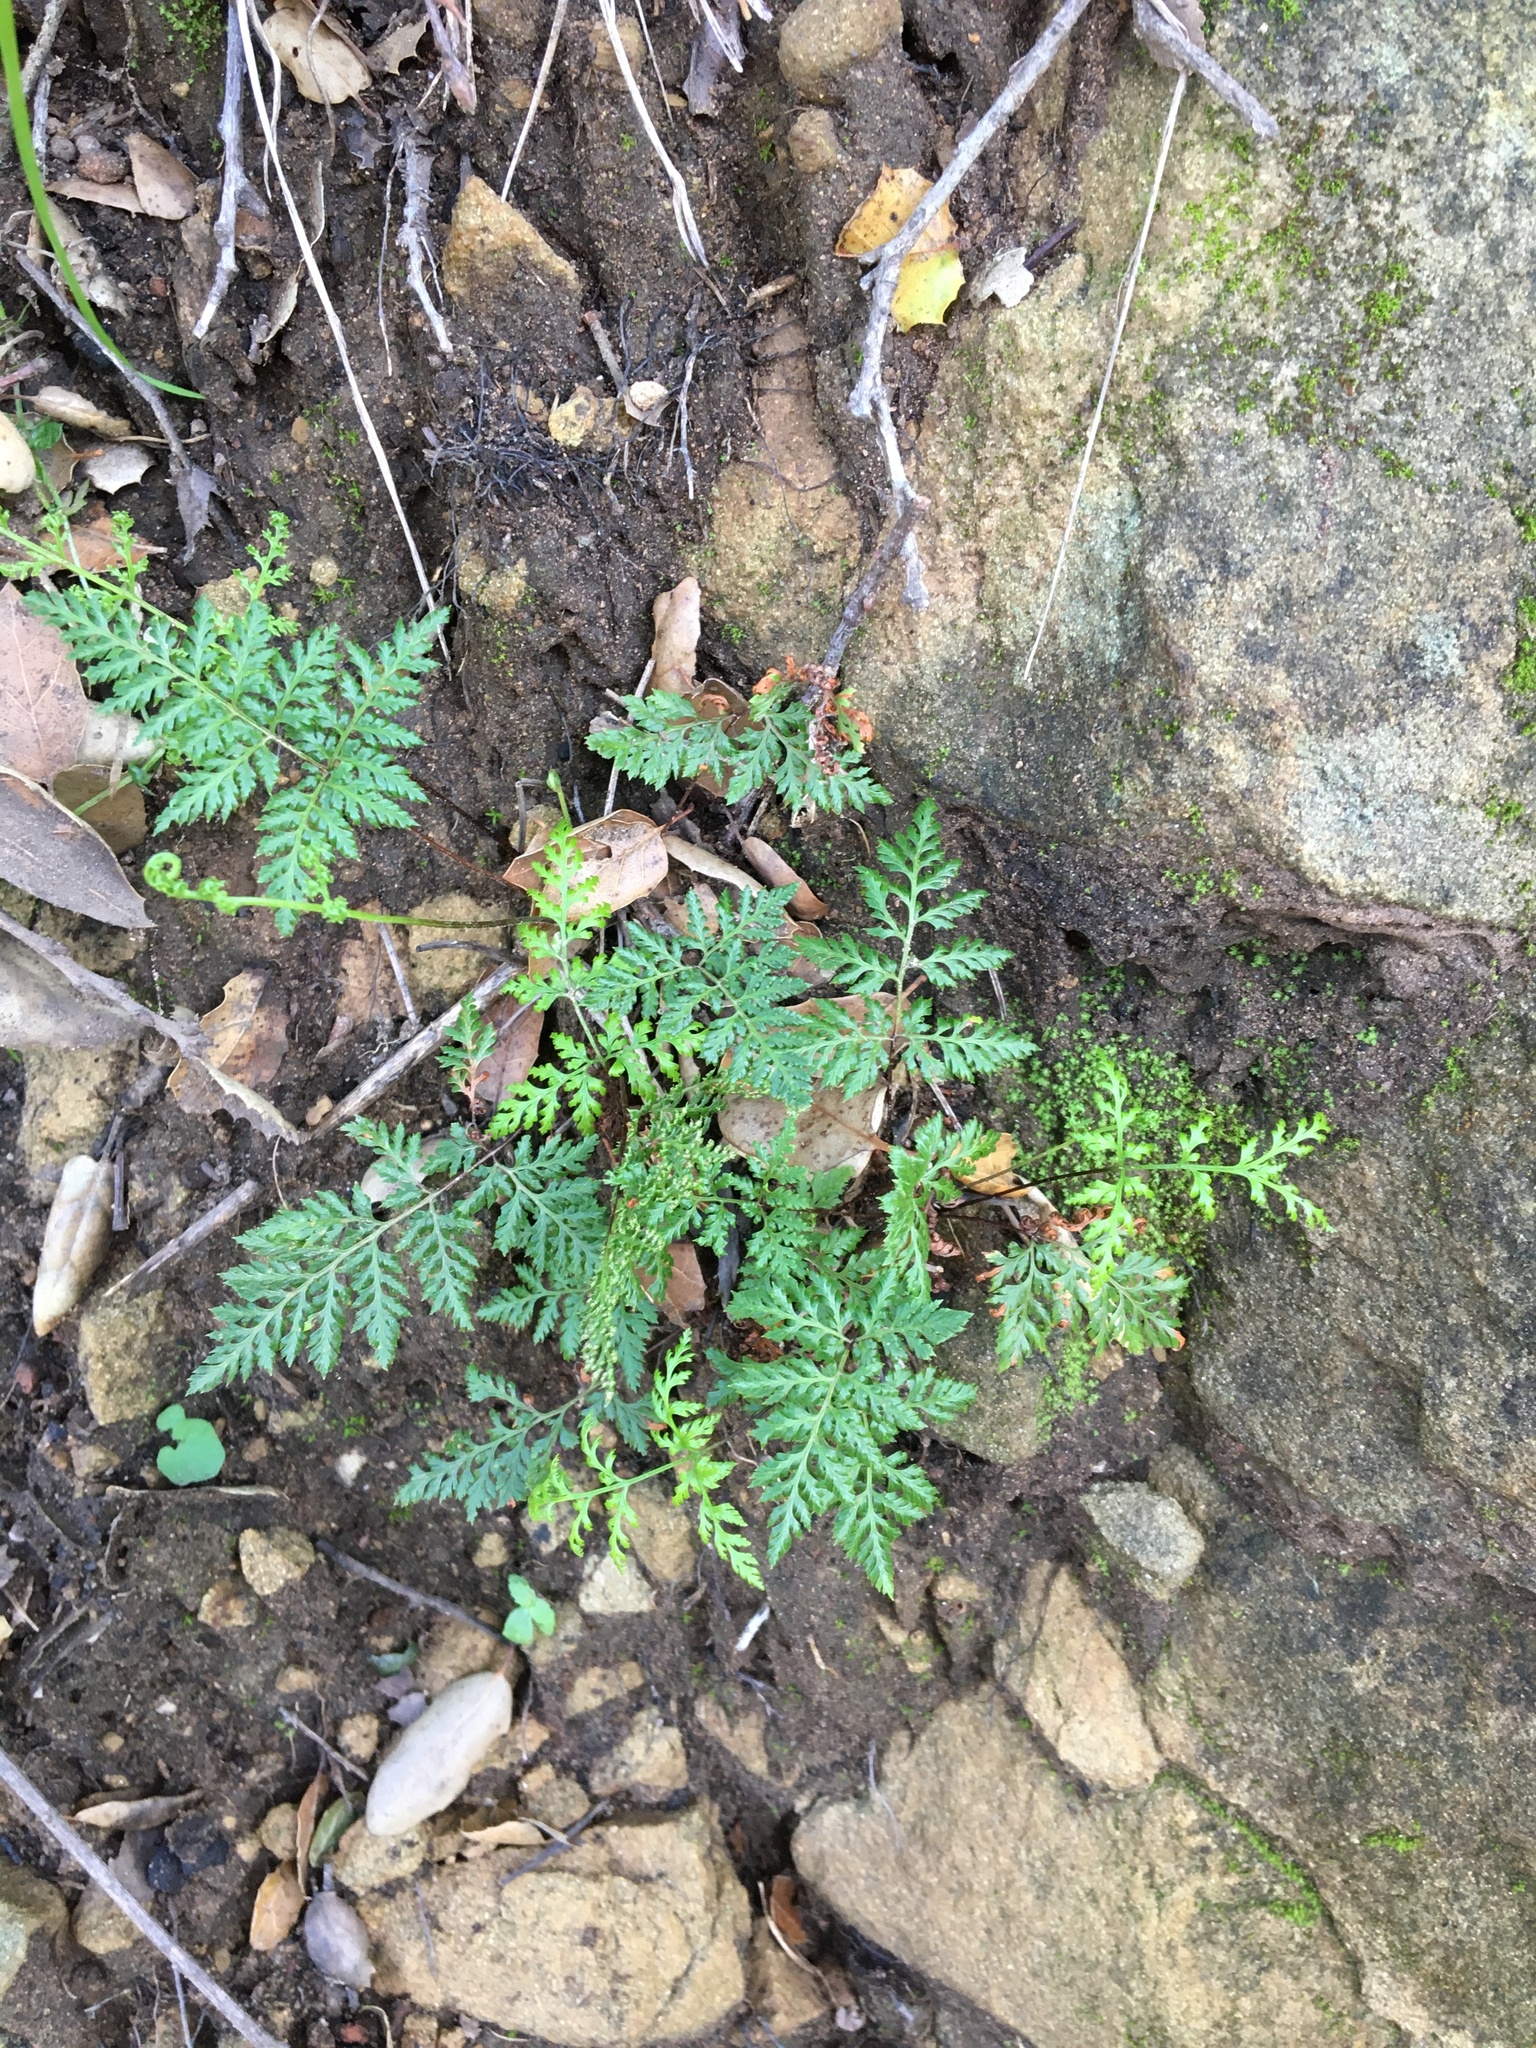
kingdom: Plantae
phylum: Tracheophyta
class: Polypodiopsida
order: Polypodiales
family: Pteridaceae
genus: Aspidotis
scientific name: Aspidotis californica
